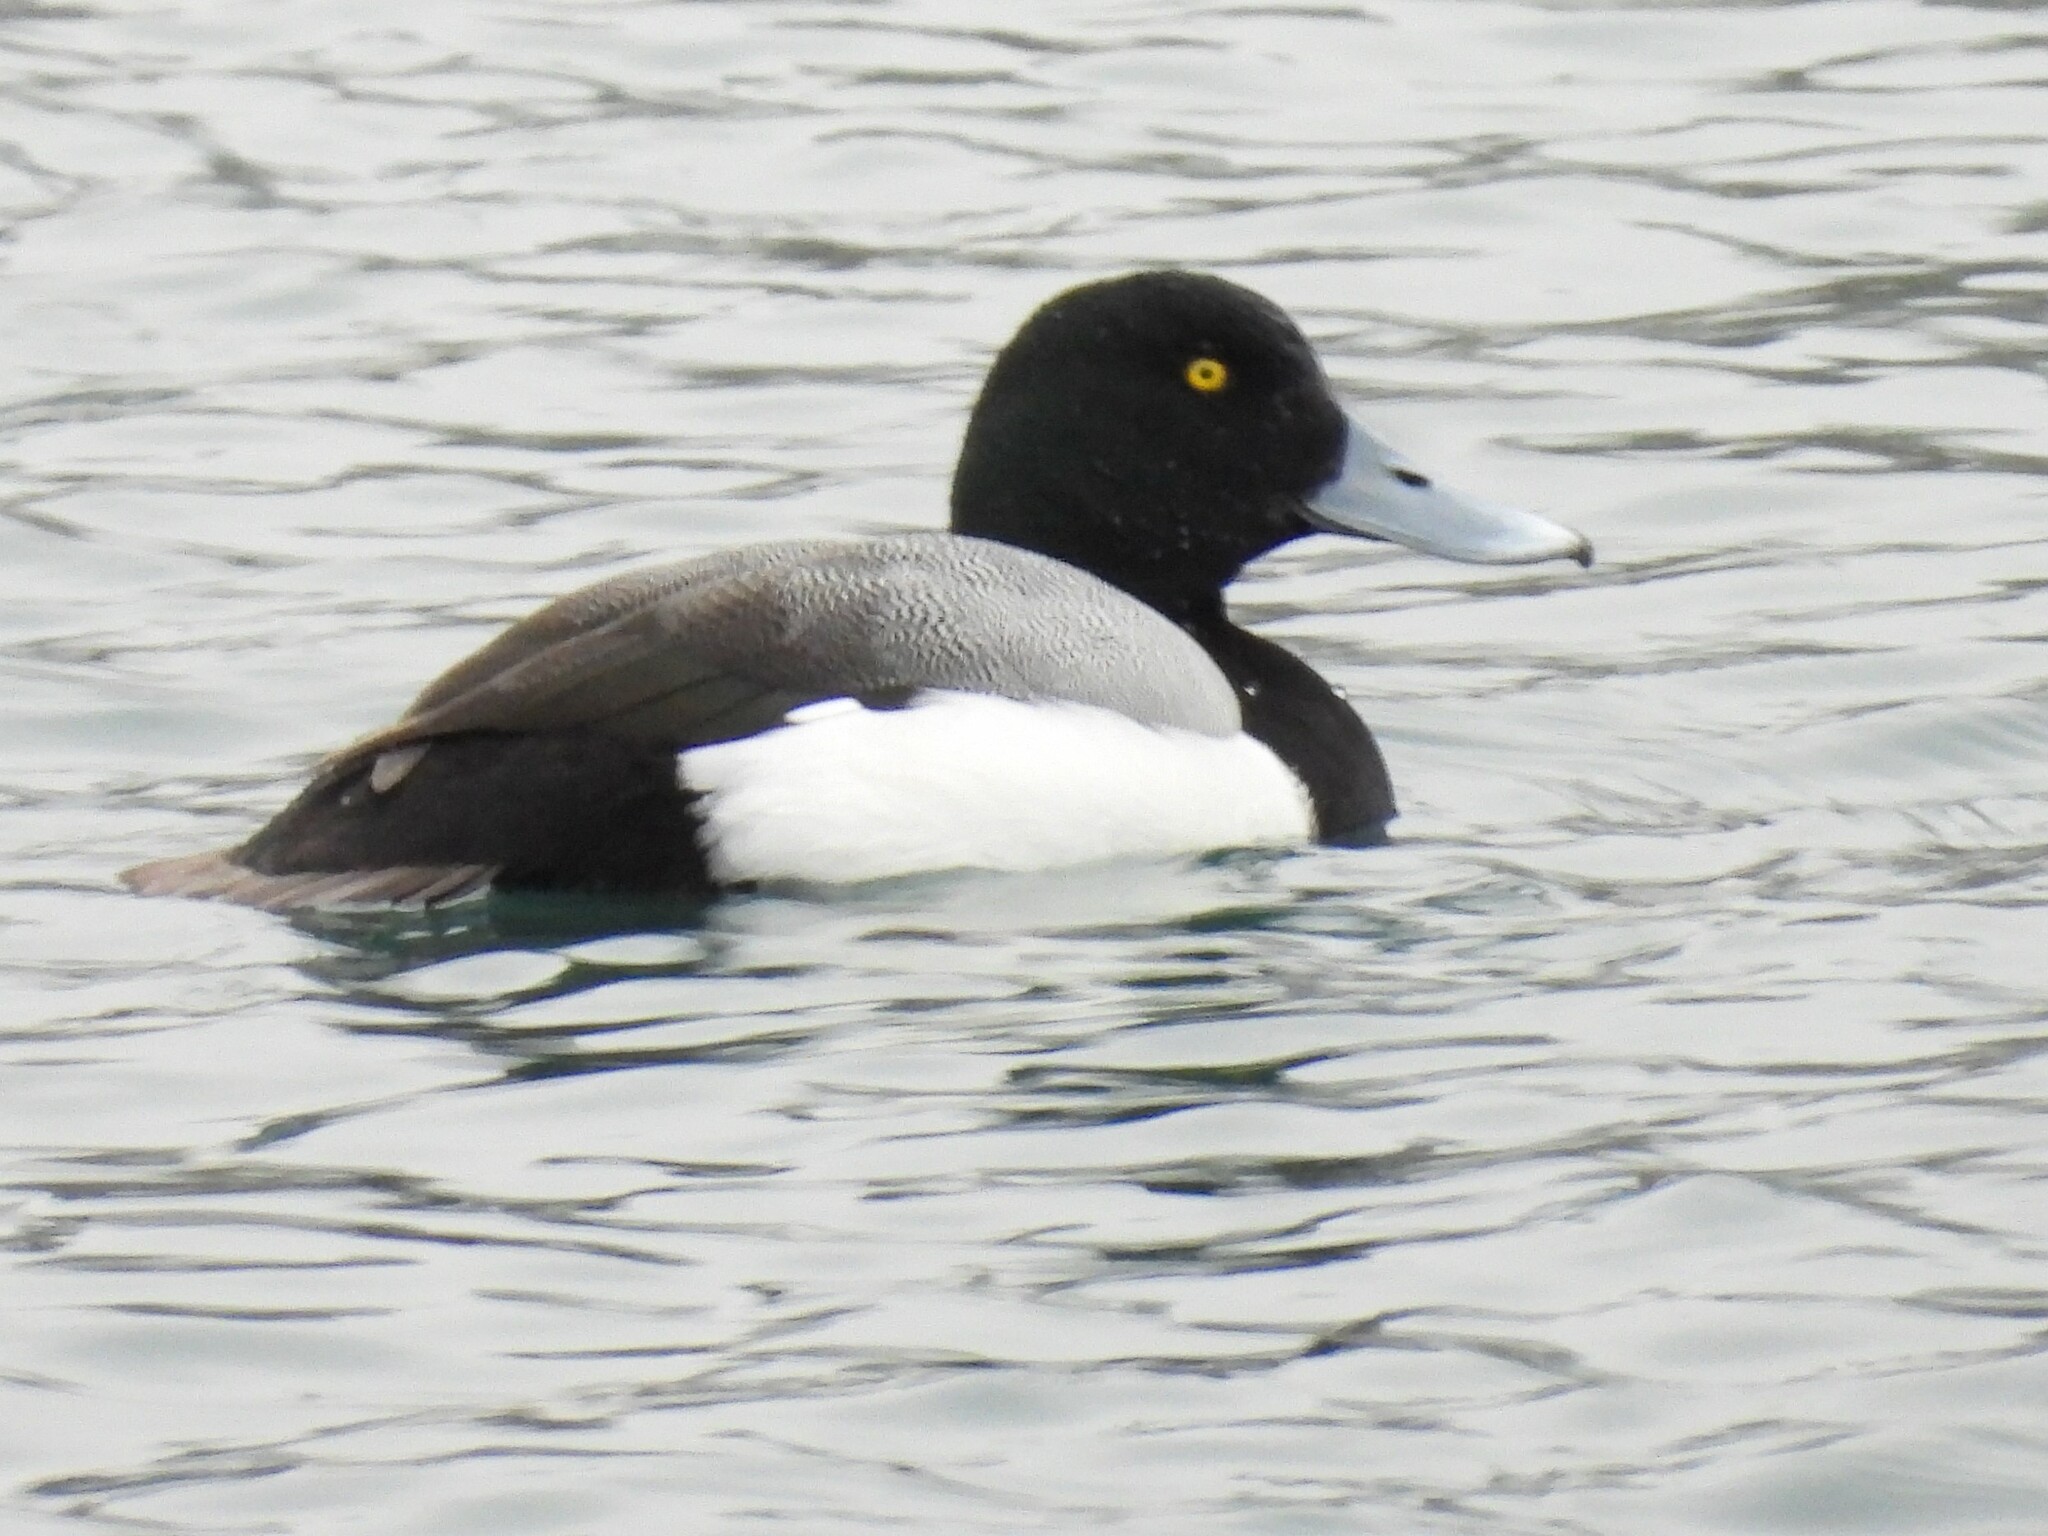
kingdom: Animalia
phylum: Chordata
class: Aves
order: Anseriformes
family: Anatidae
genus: Aythya
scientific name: Aythya marila
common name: Greater scaup
